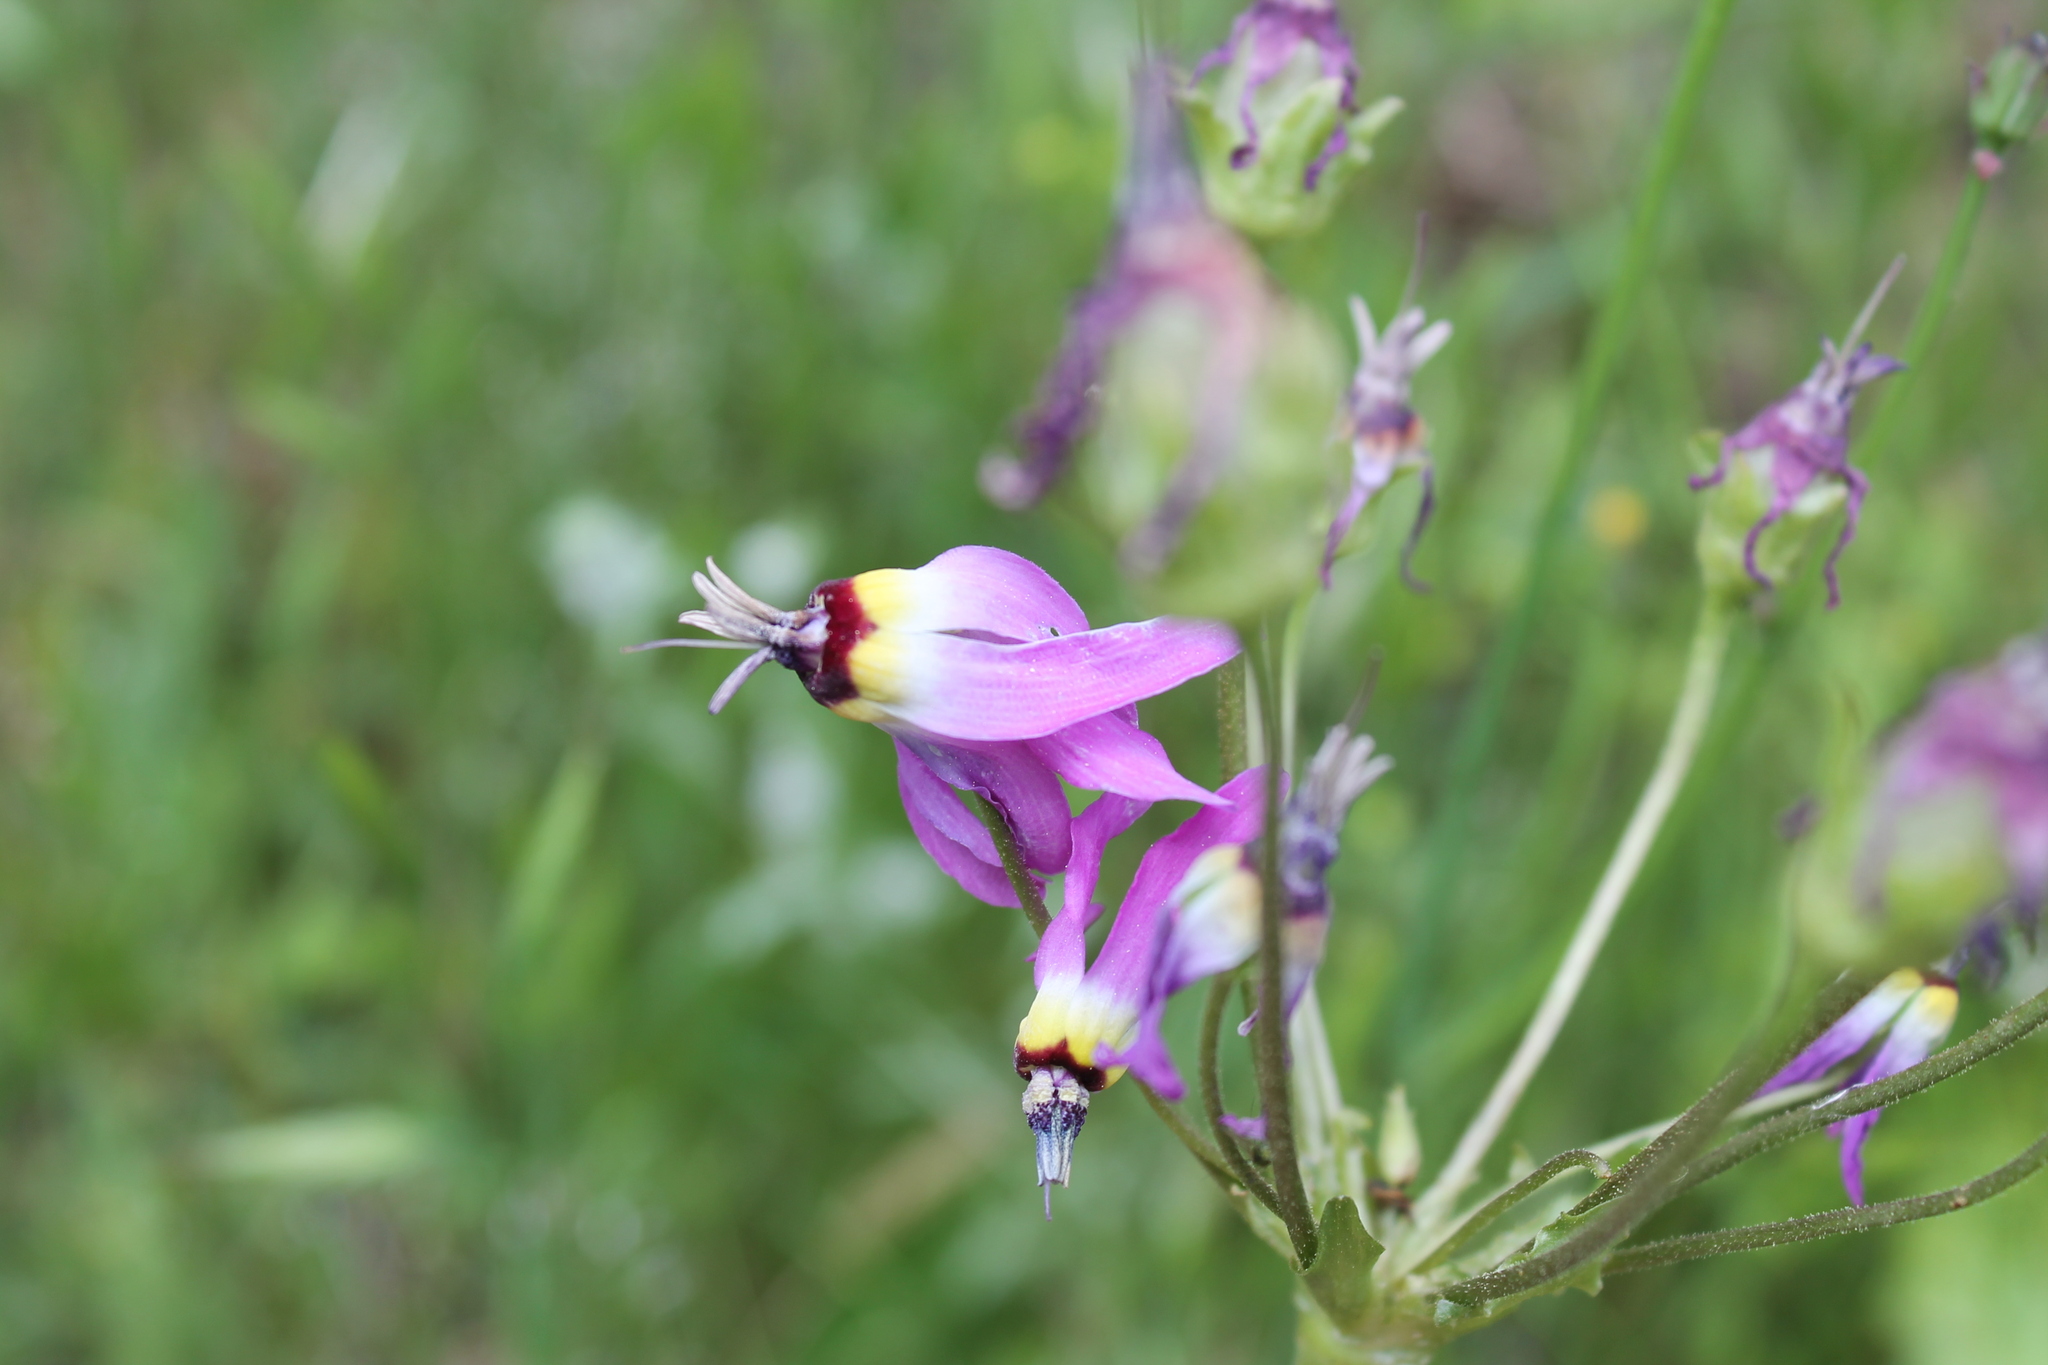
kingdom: Plantae
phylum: Tracheophyta
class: Magnoliopsida
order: Ericales
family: Primulaceae
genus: Dodecatheon
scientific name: Dodecatheon clevelandii
